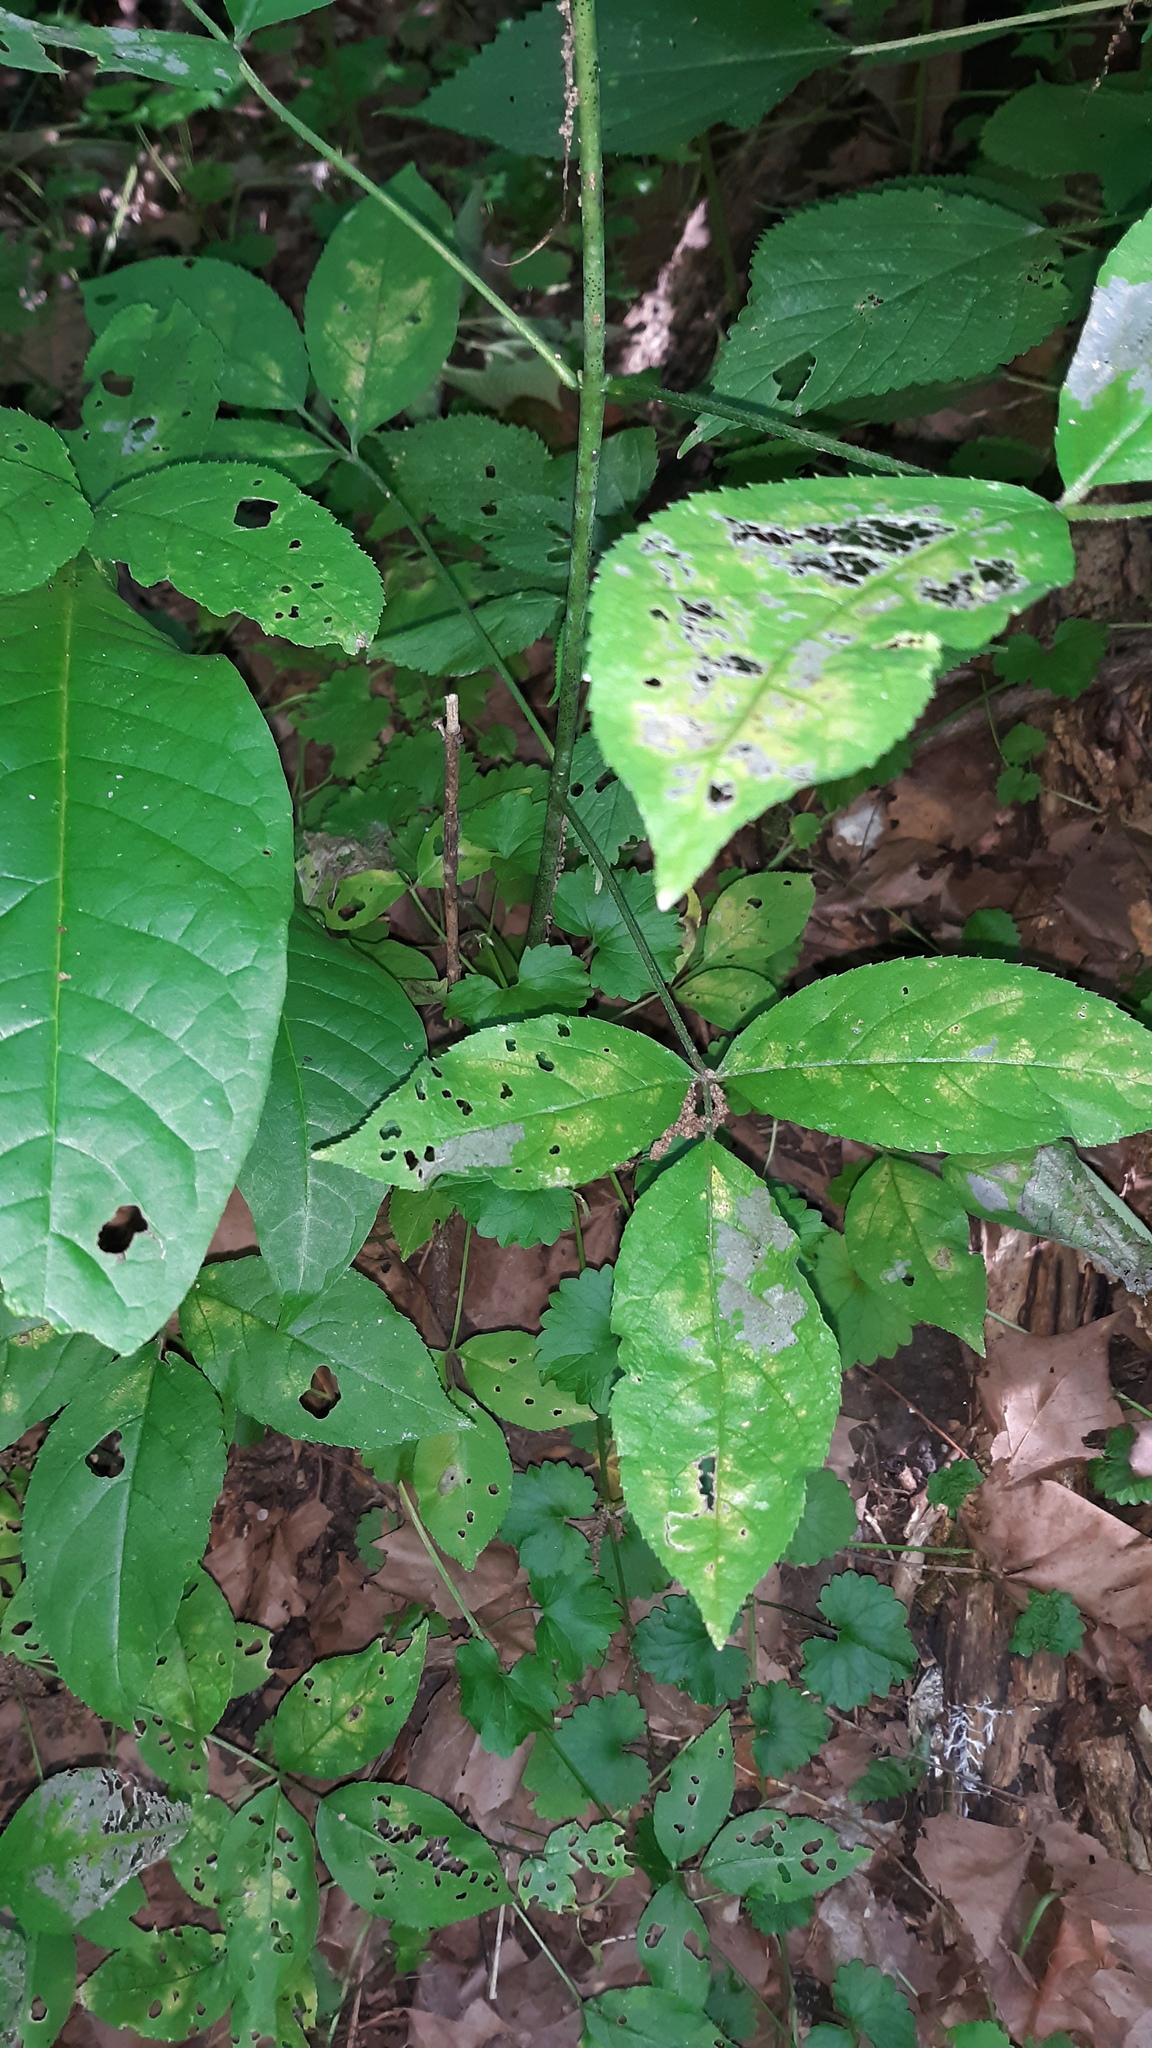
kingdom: Plantae
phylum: Tracheophyta
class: Magnoliopsida
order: Crossosomatales
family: Staphyleaceae
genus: Staphylea
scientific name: Staphylea trifolia
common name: American bladdernut
